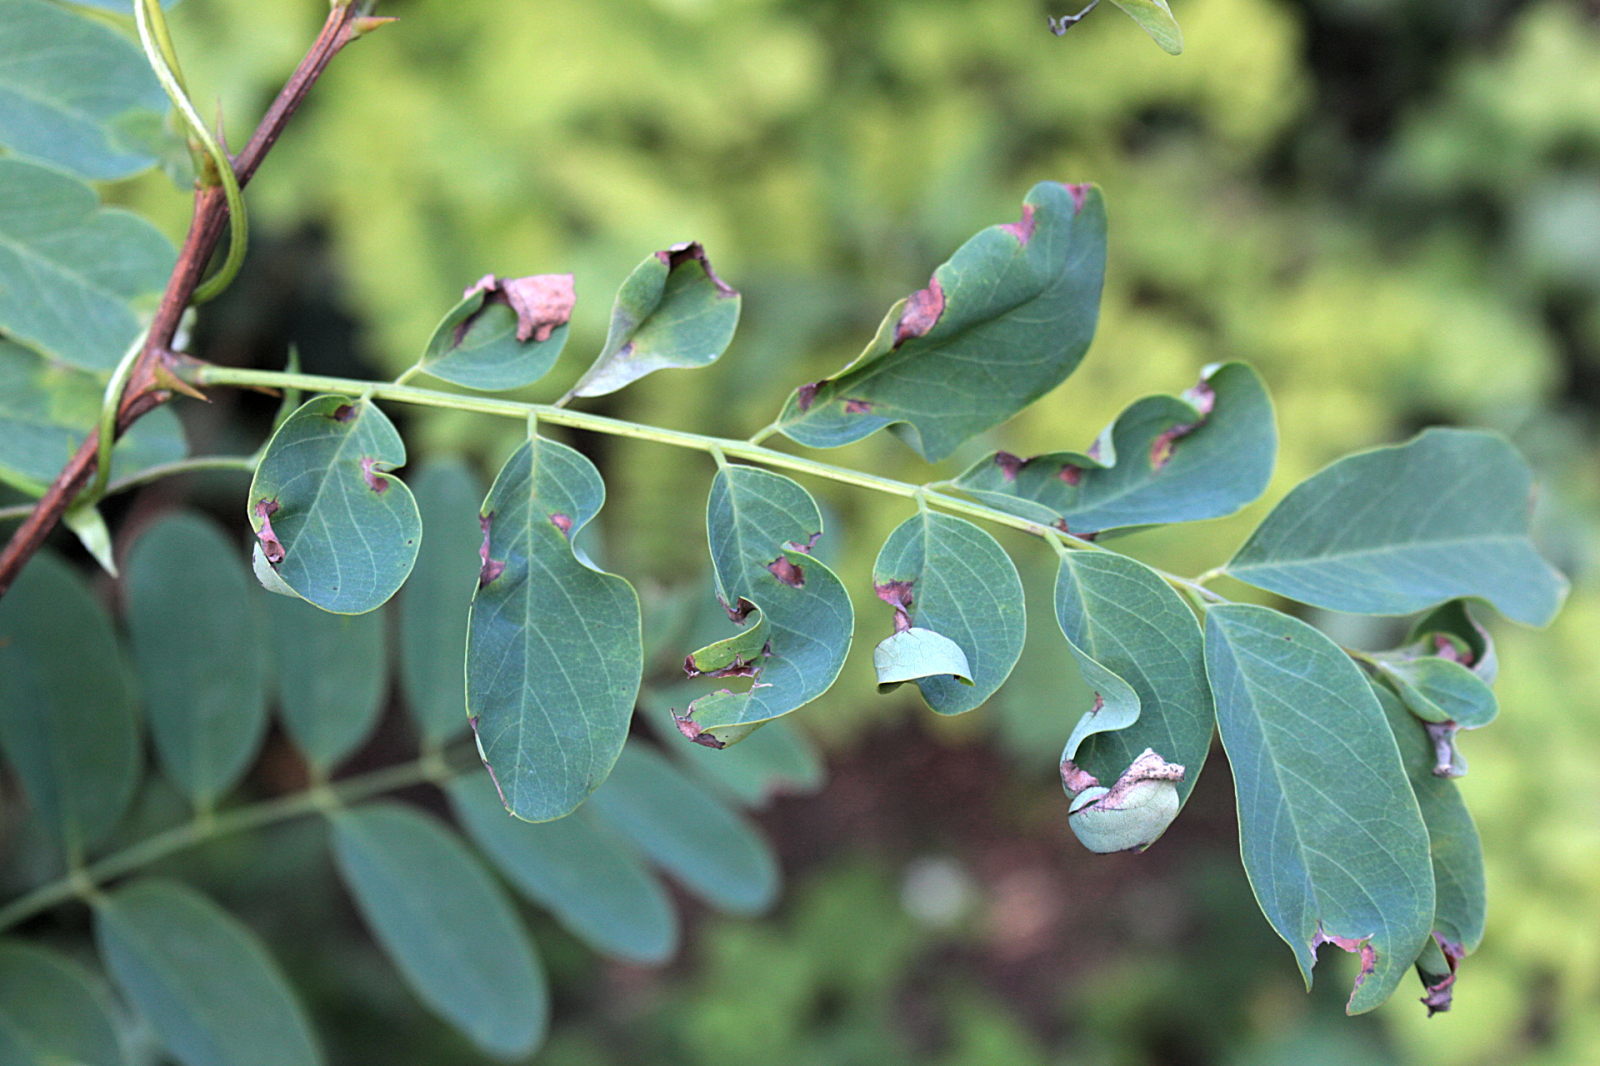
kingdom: Plantae
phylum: Tracheophyta
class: Magnoliopsida
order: Fabales
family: Fabaceae
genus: Robinia
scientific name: Robinia pseudoacacia
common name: Black locust
